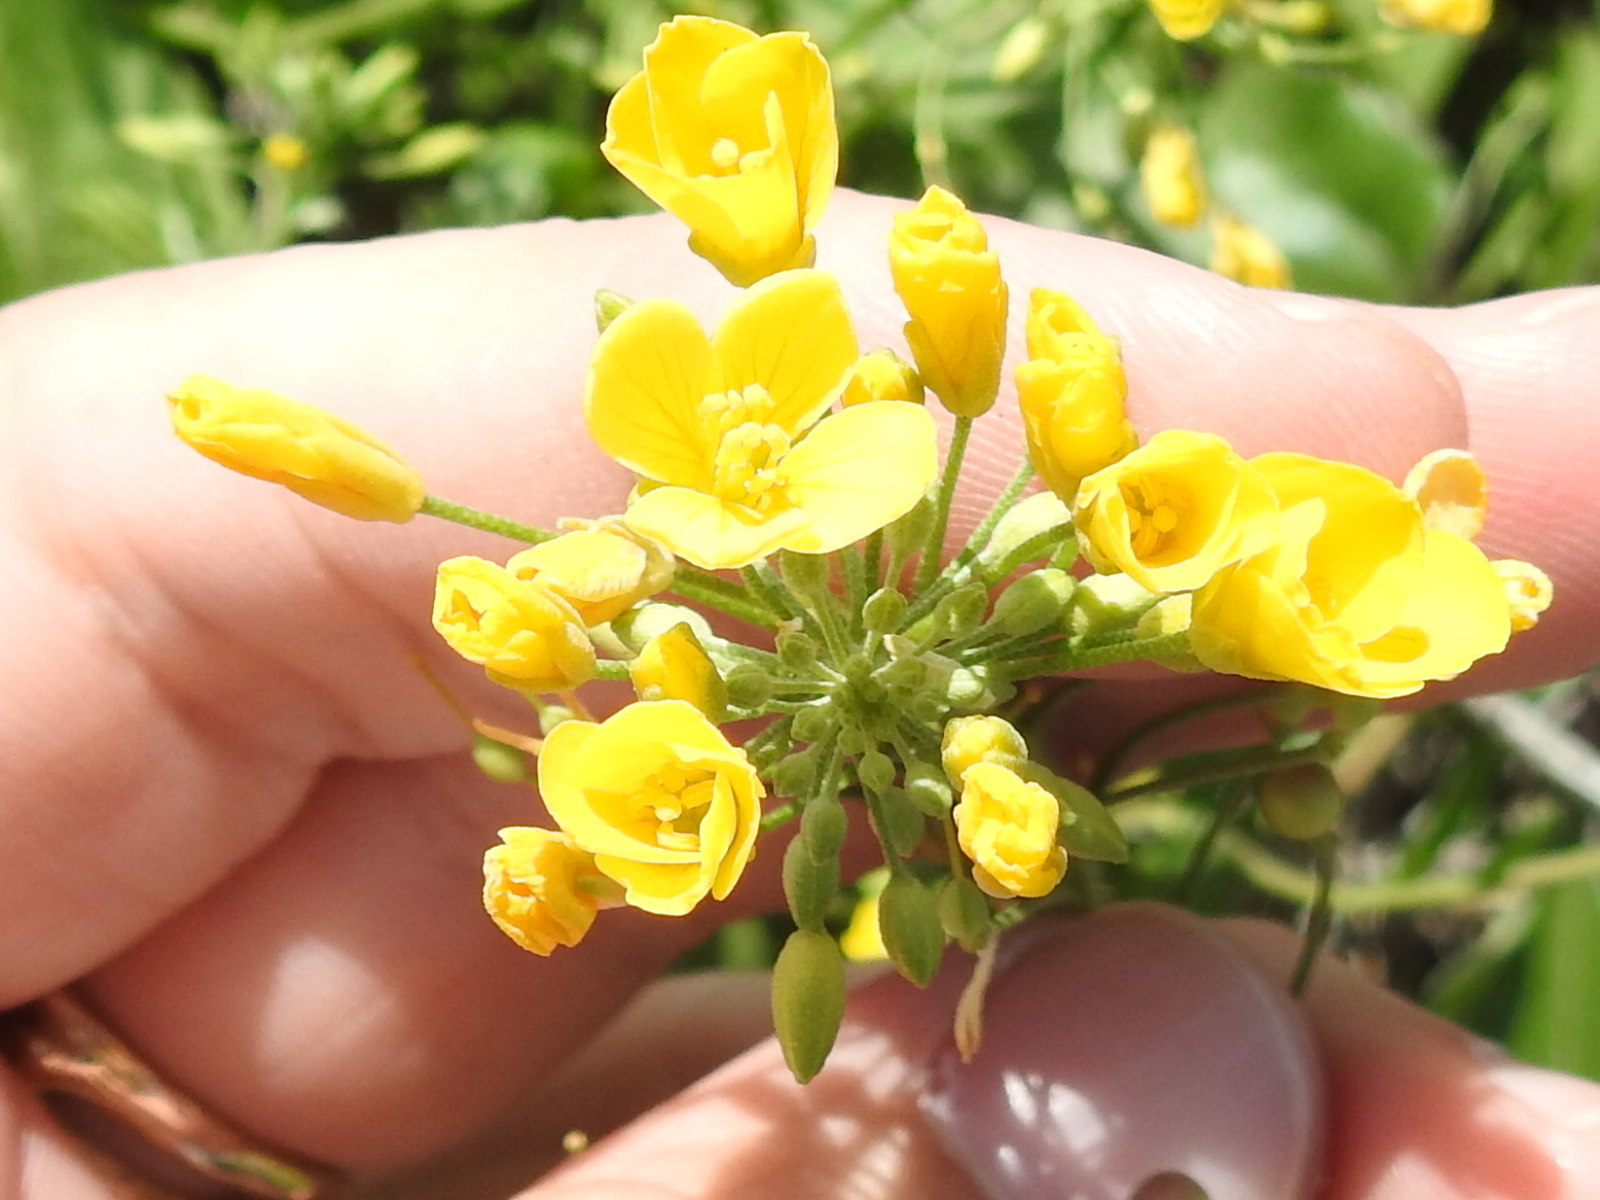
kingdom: Plantae
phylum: Tracheophyta
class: Magnoliopsida
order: Brassicales
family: Brassicaceae
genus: Physaria
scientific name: Physaria gracilis
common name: Spreading bladderpod
